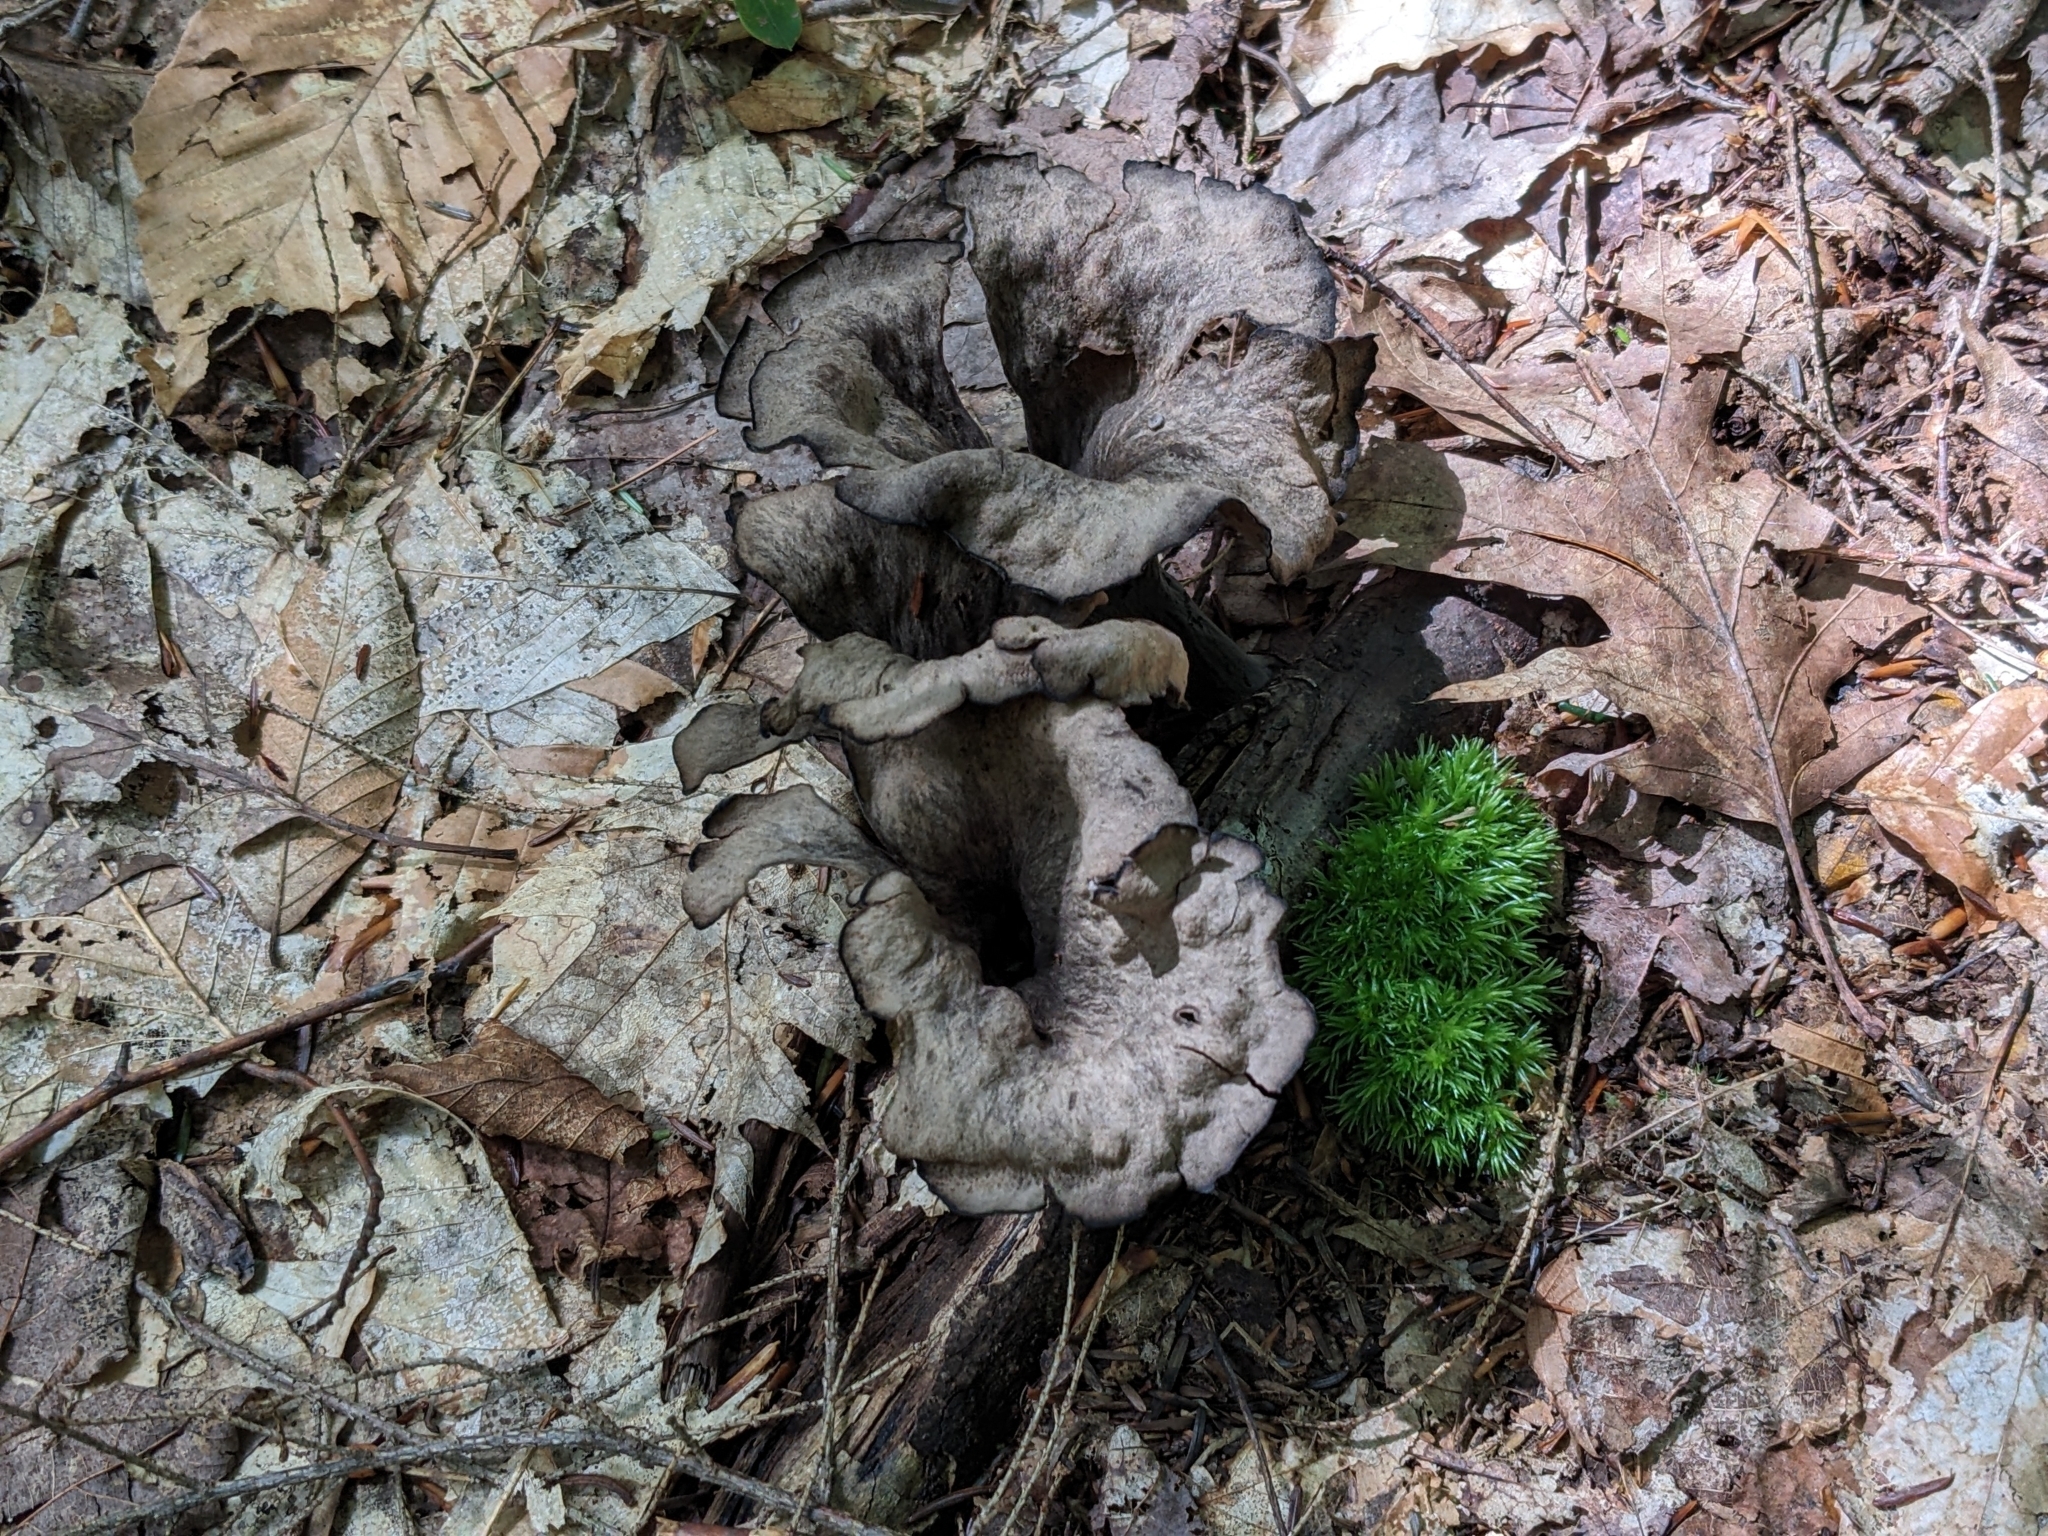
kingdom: Fungi
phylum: Basidiomycota
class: Agaricomycetes
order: Cantharellales
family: Hydnaceae
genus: Craterellus
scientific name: Craterellus cornucopioides
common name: Horn of plenty
